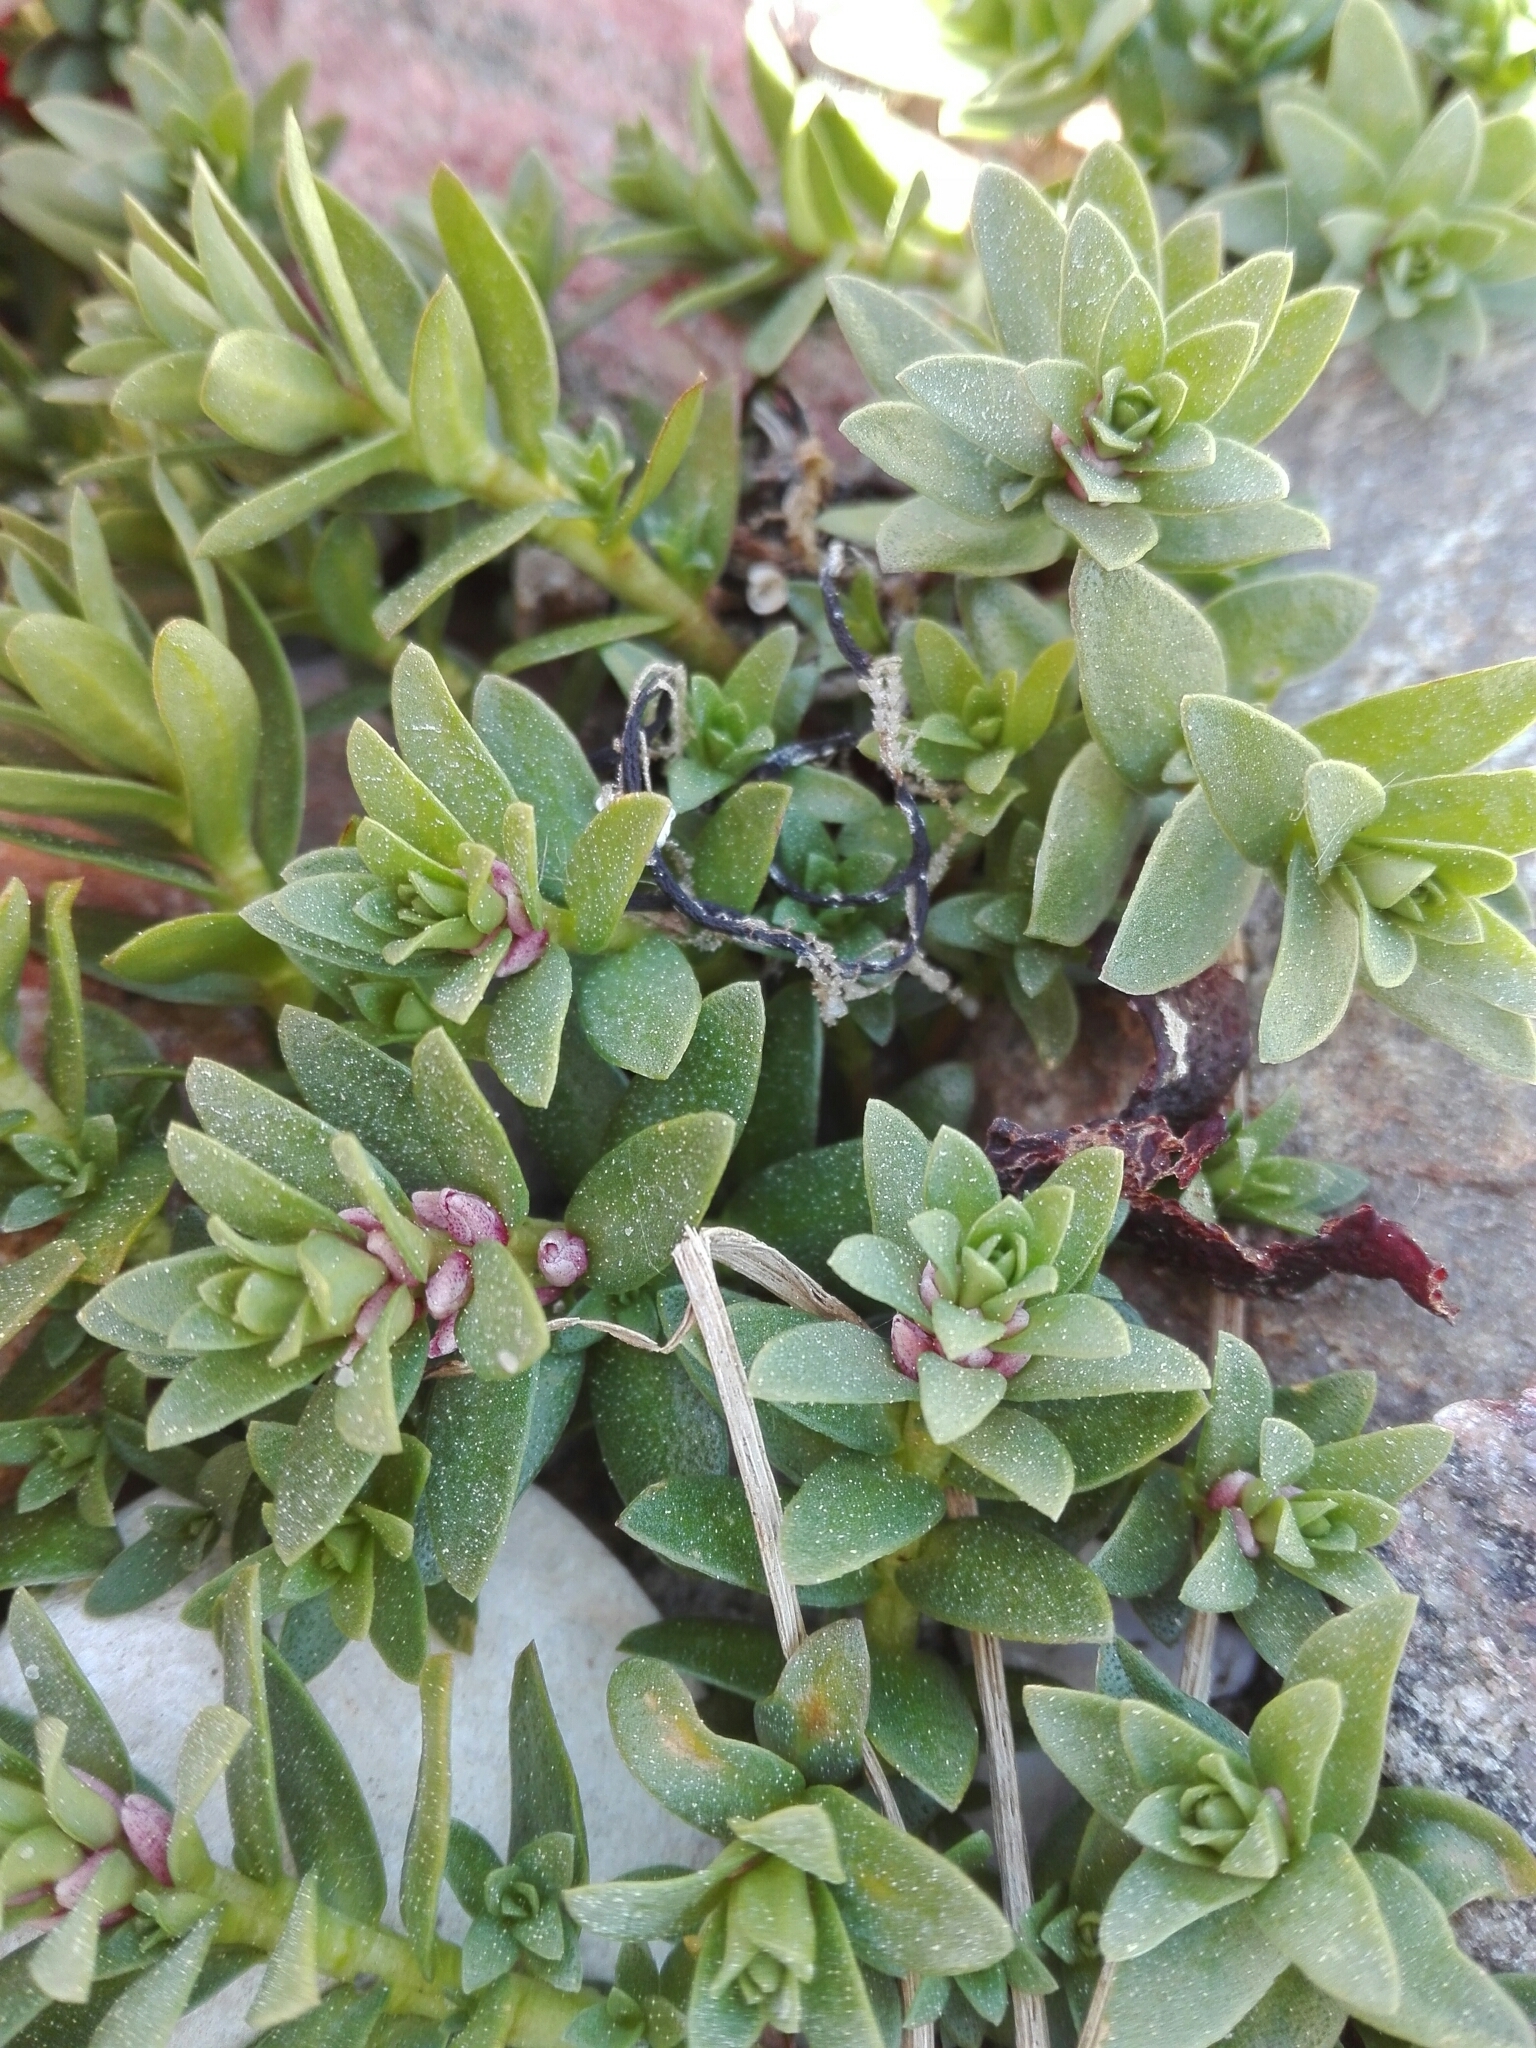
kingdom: Plantae
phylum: Tracheophyta
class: Magnoliopsida
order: Ericales
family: Primulaceae
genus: Lysimachia
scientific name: Lysimachia maritima
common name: Sea milkwort
